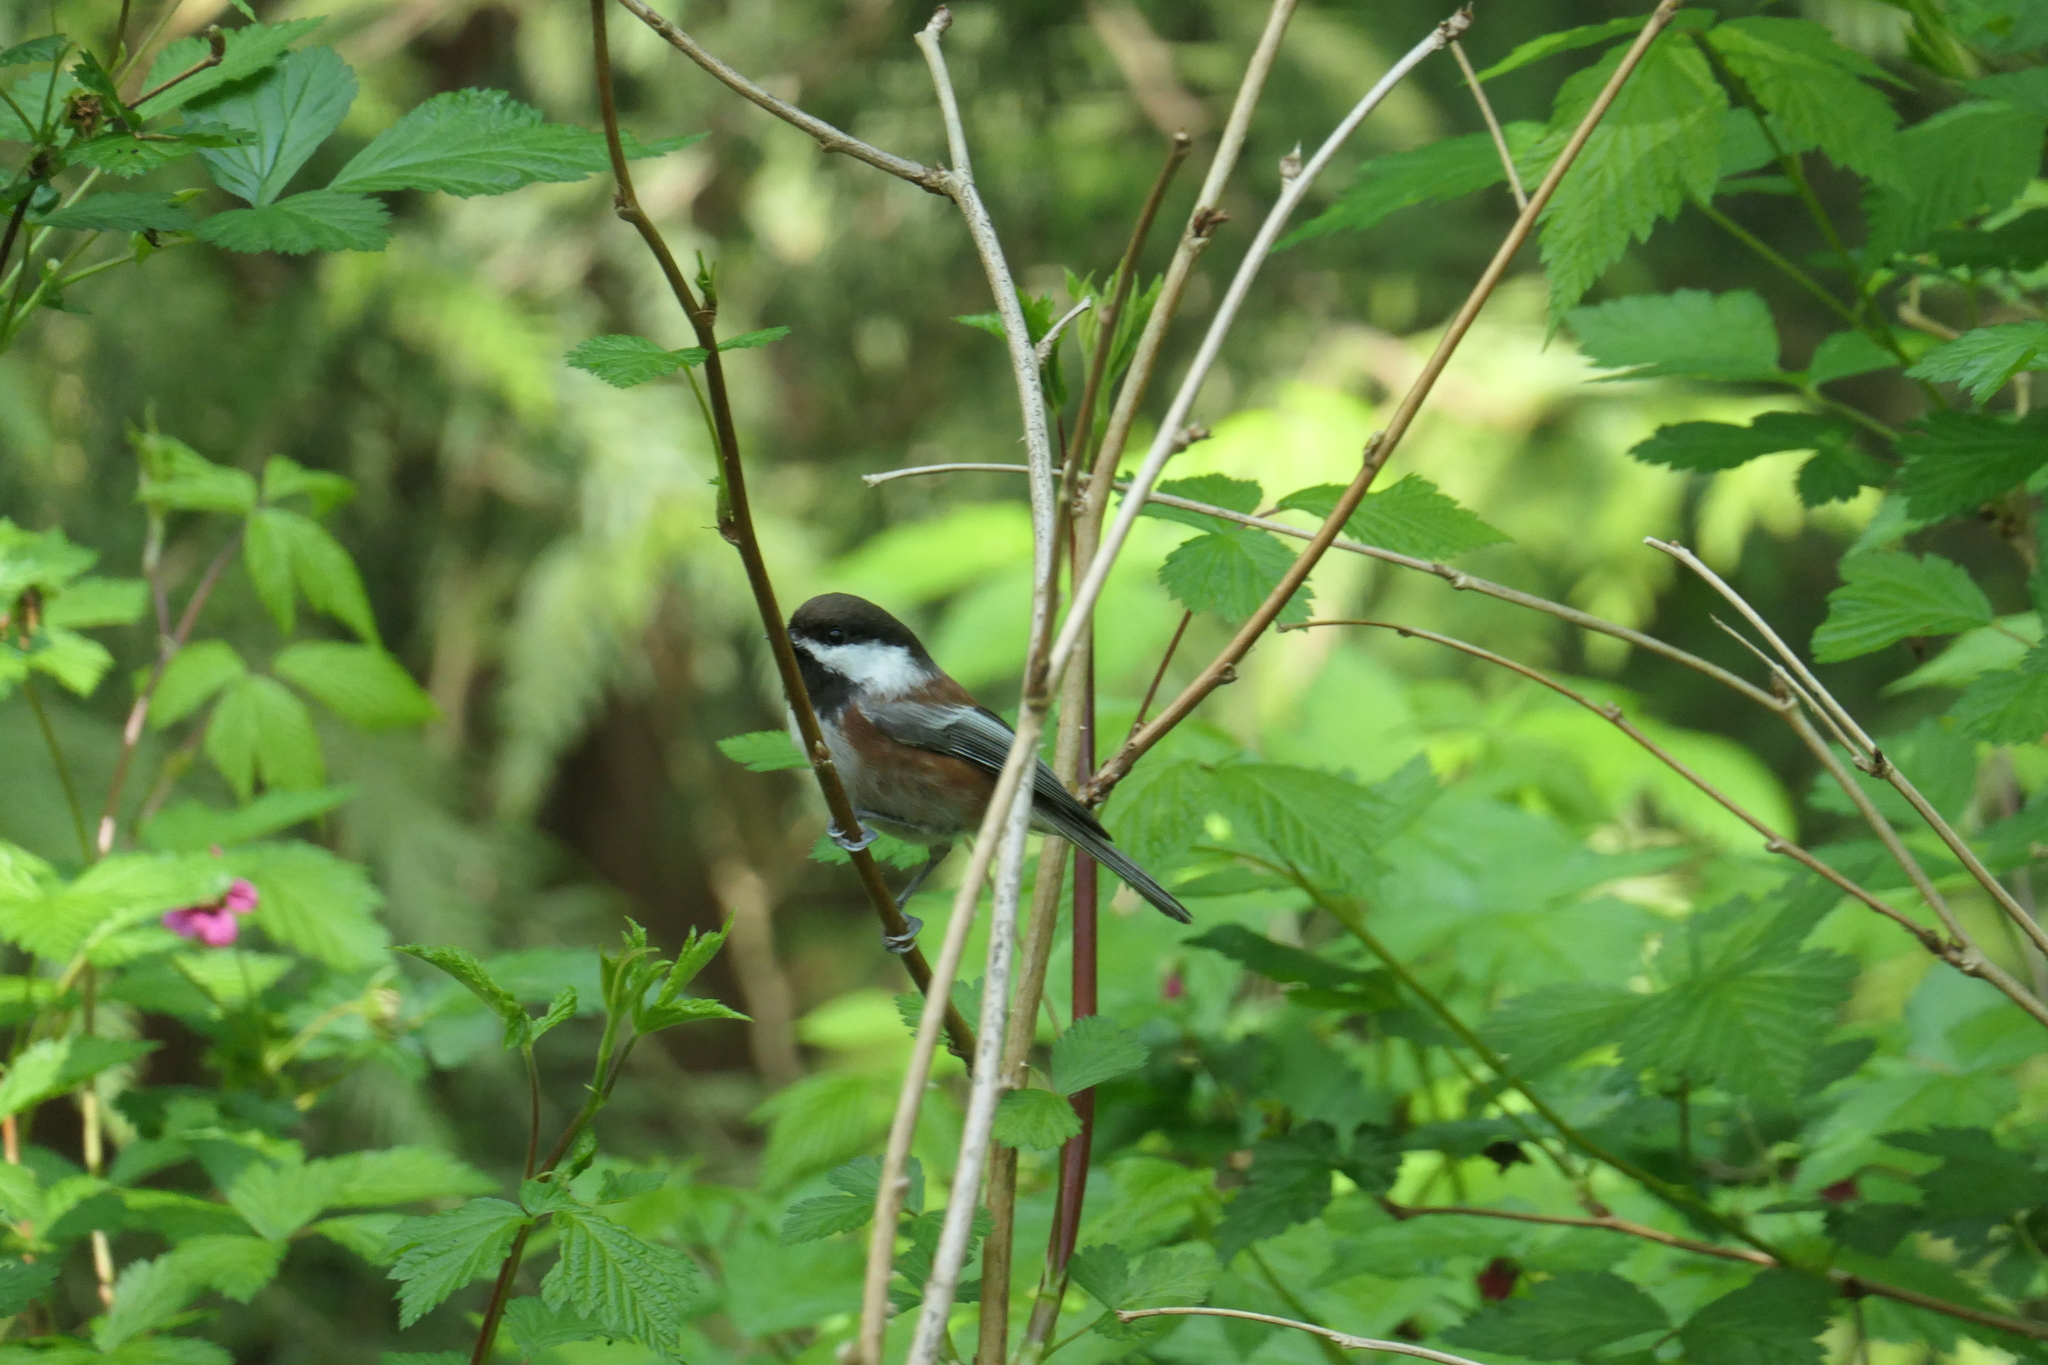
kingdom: Animalia
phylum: Chordata
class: Aves
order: Passeriformes
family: Paridae
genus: Poecile
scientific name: Poecile rufescens
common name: Chestnut-backed chickadee
